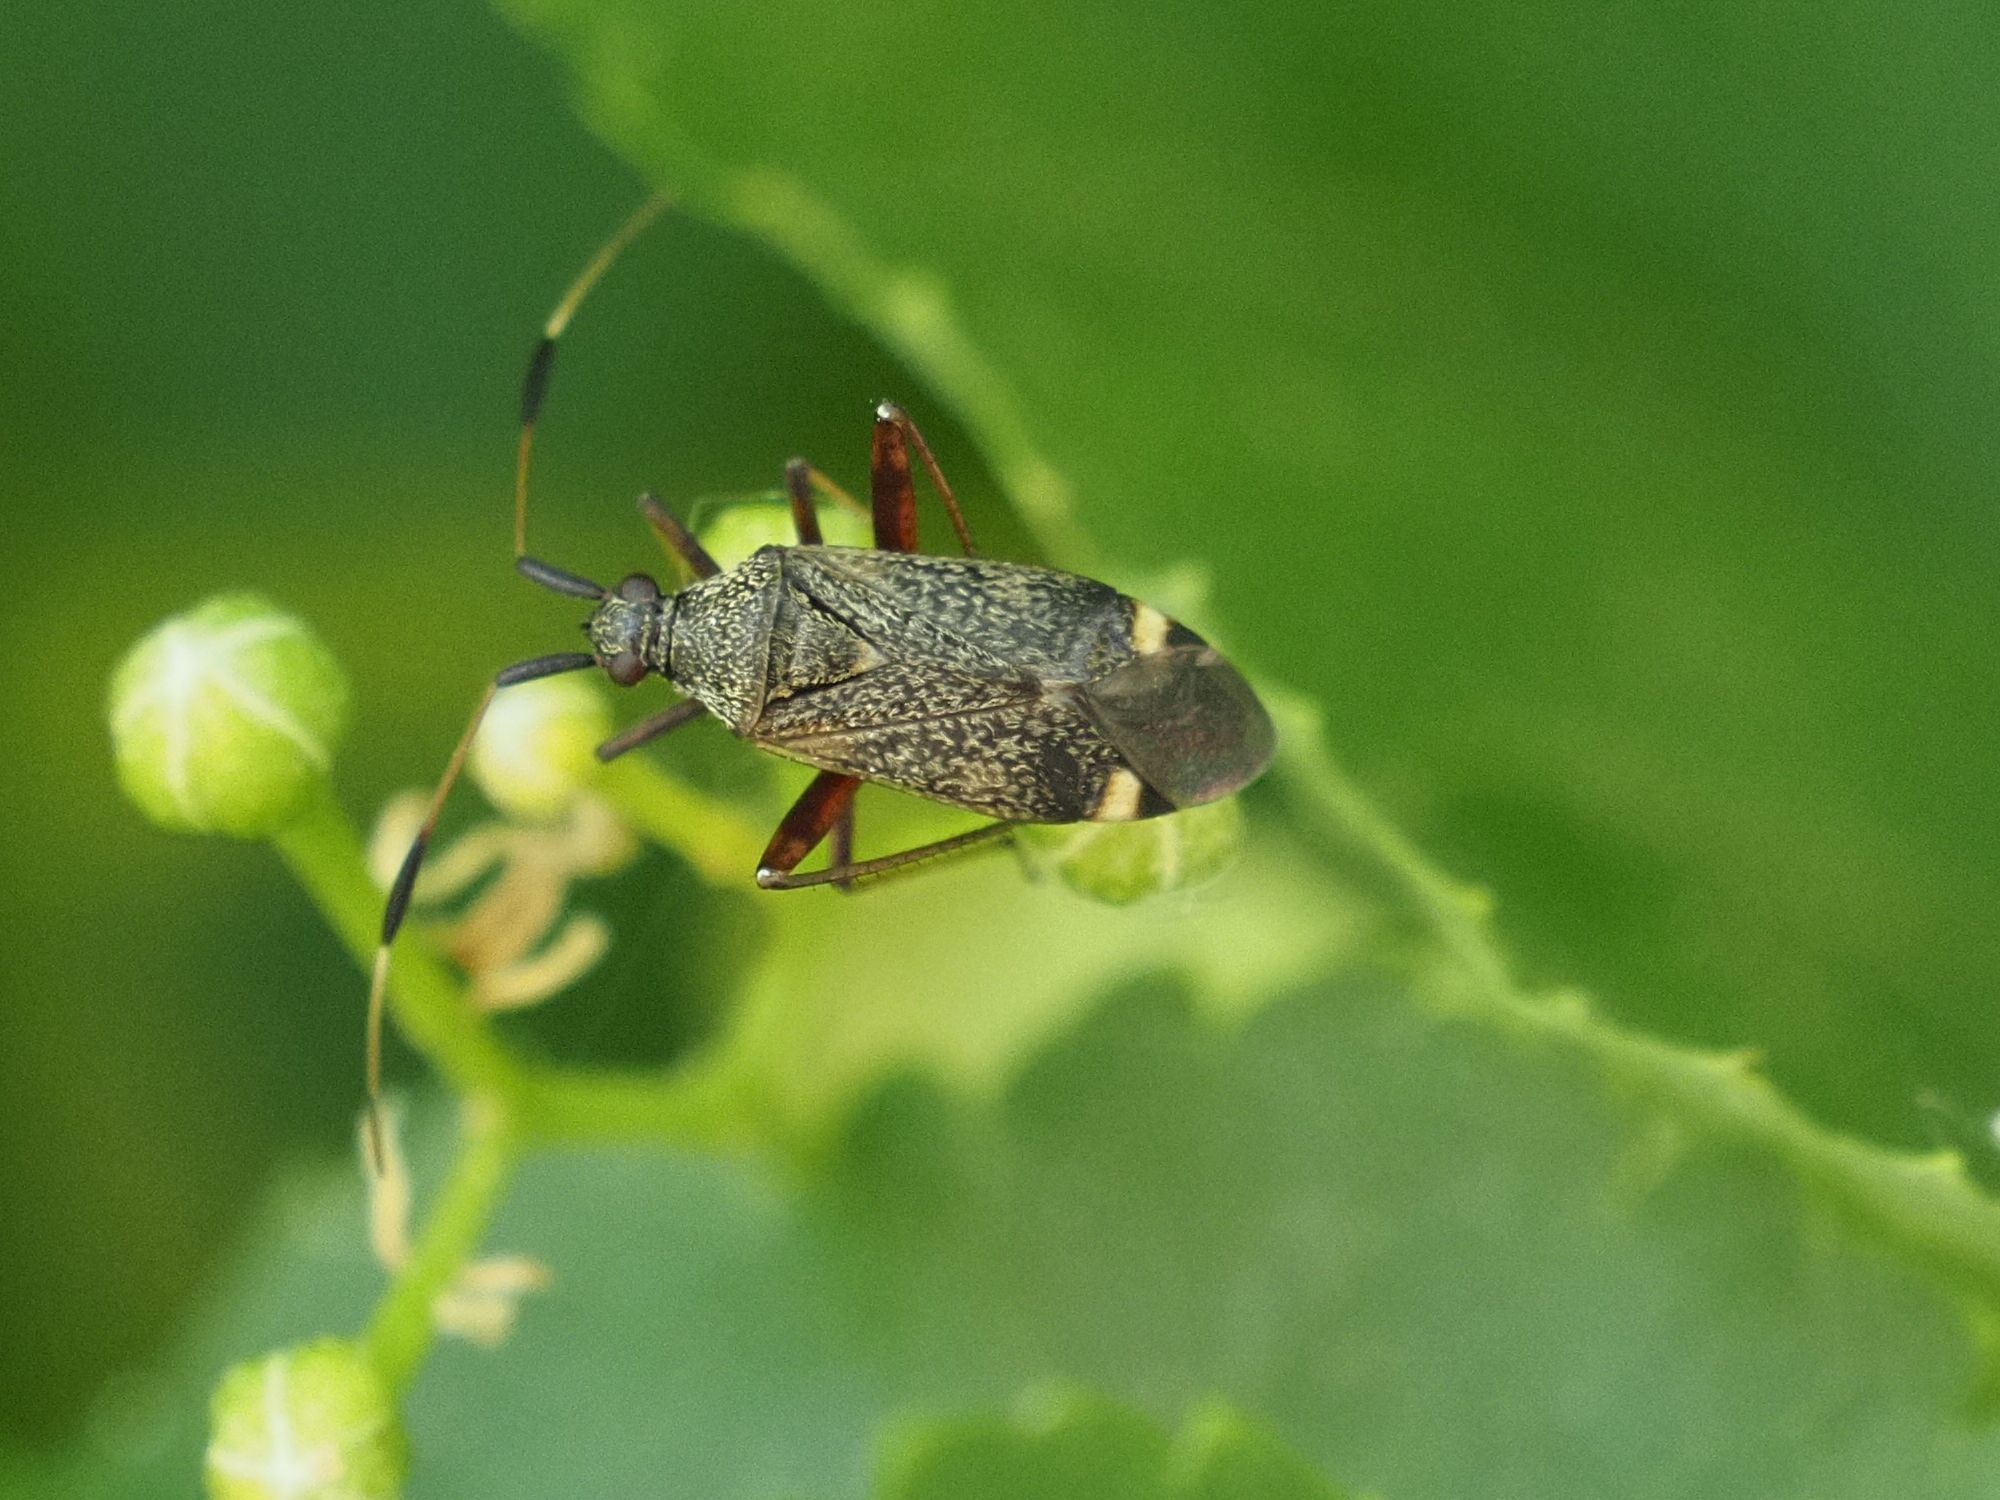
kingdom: Animalia
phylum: Arthropoda
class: Insecta
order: Hemiptera
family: Miridae
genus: Closterotomus
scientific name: Closterotomus biclavatus
